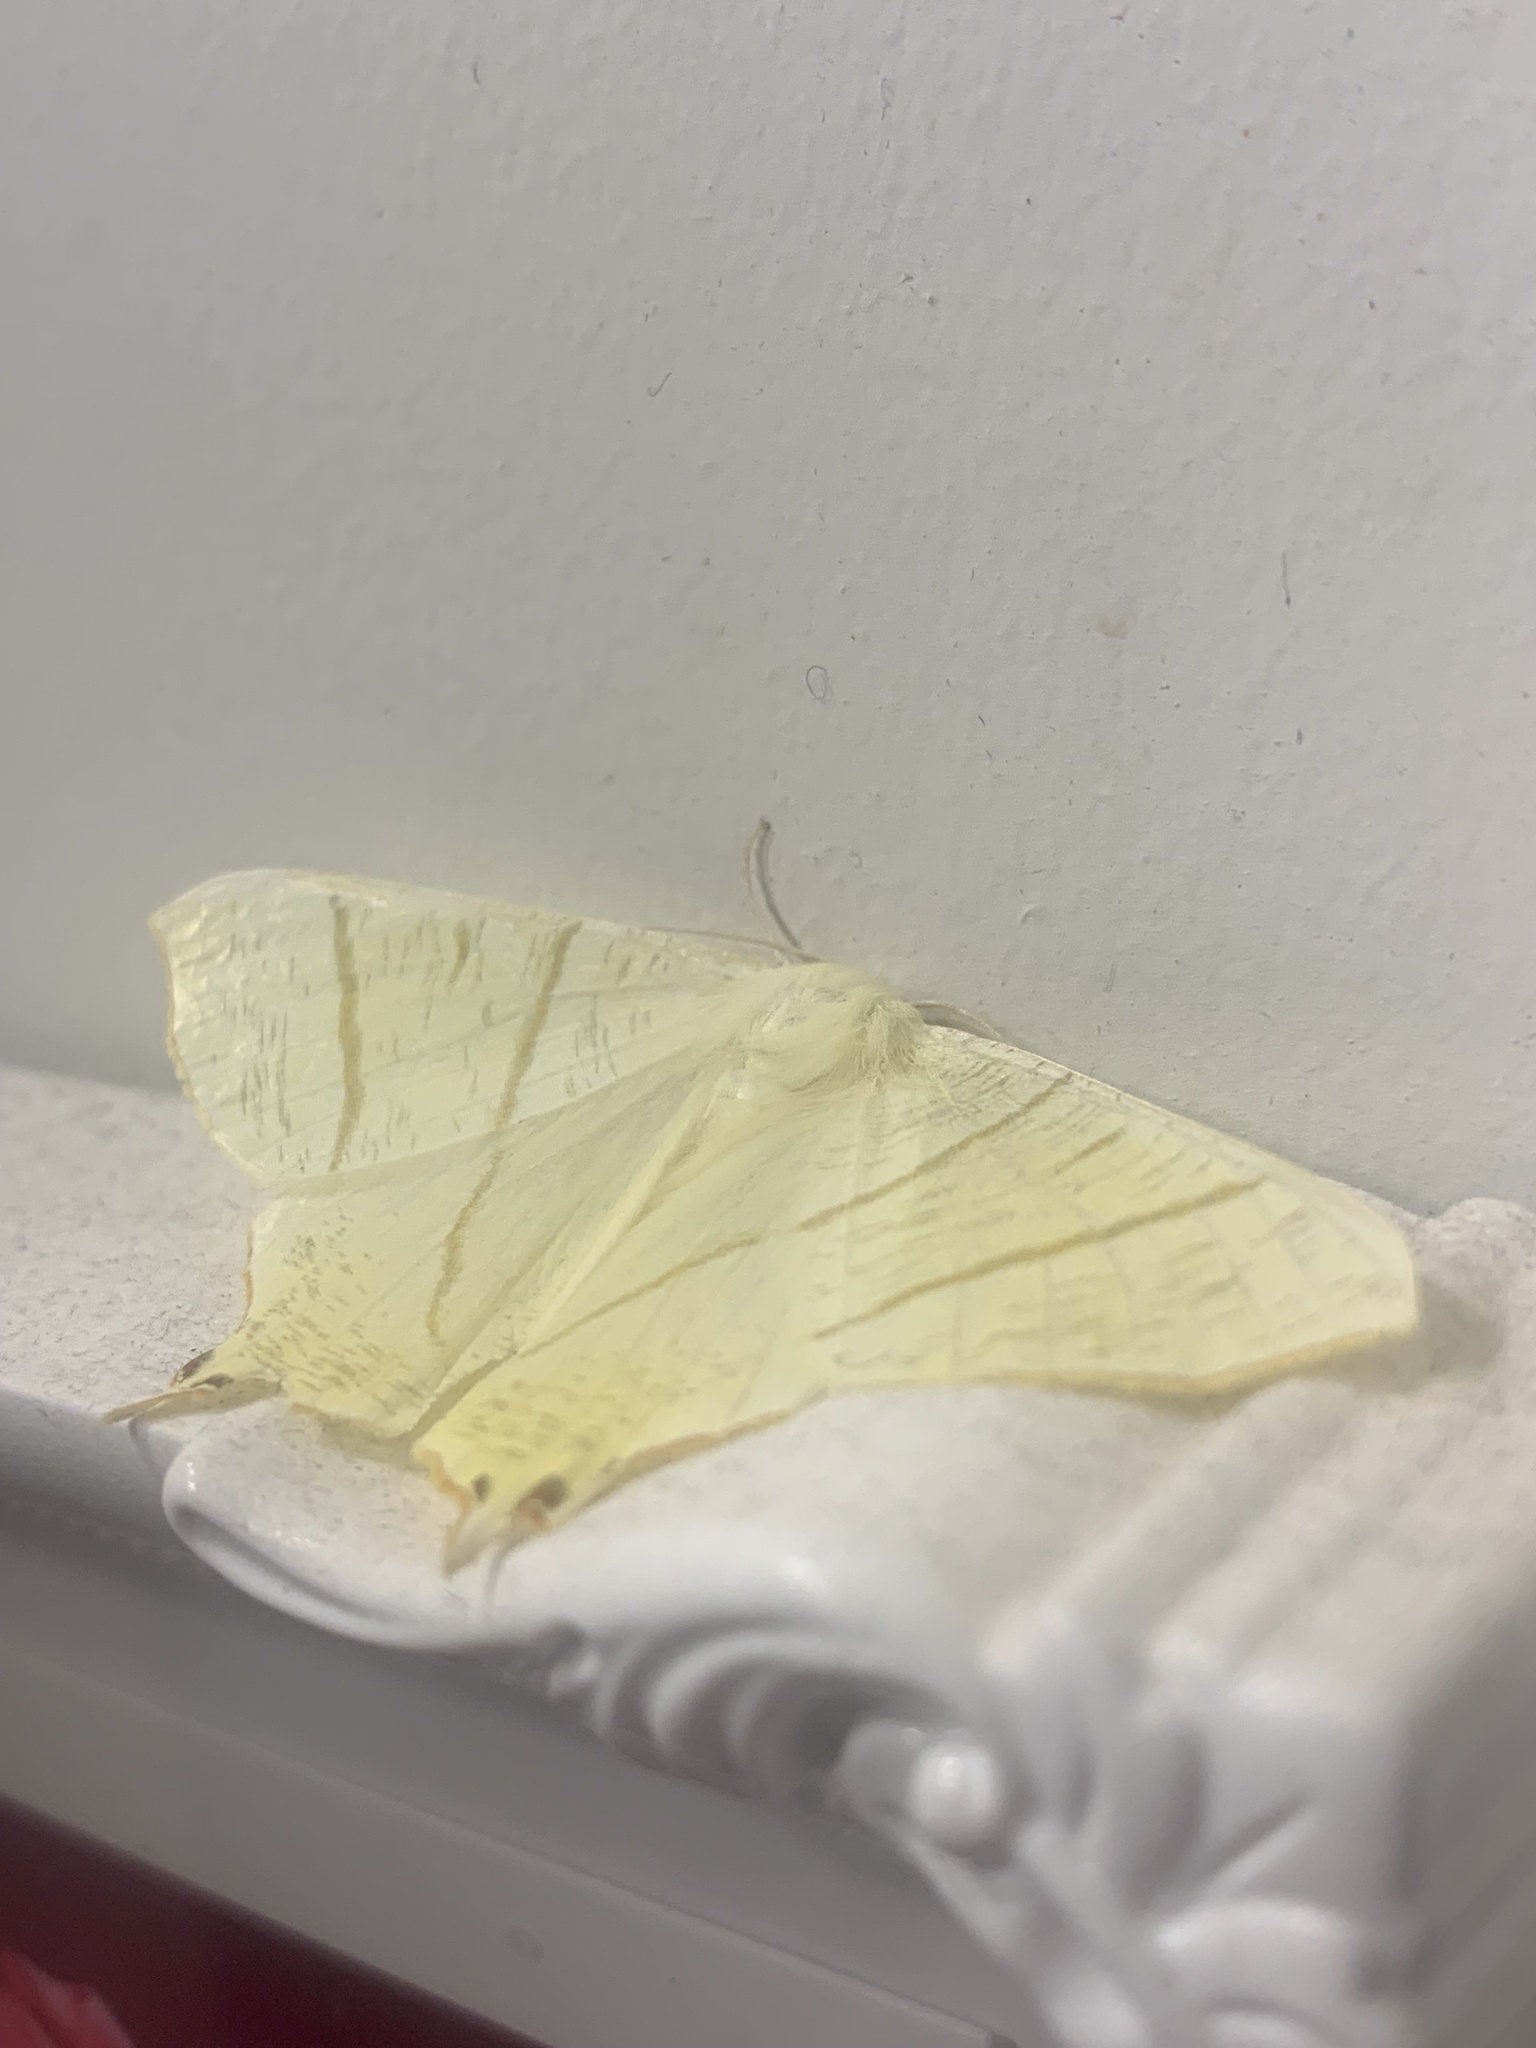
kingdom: Animalia
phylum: Arthropoda
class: Insecta
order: Lepidoptera
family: Geometridae
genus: Ourapteryx
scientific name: Ourapteryx sambucaria
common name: Swallow-tailed moth
